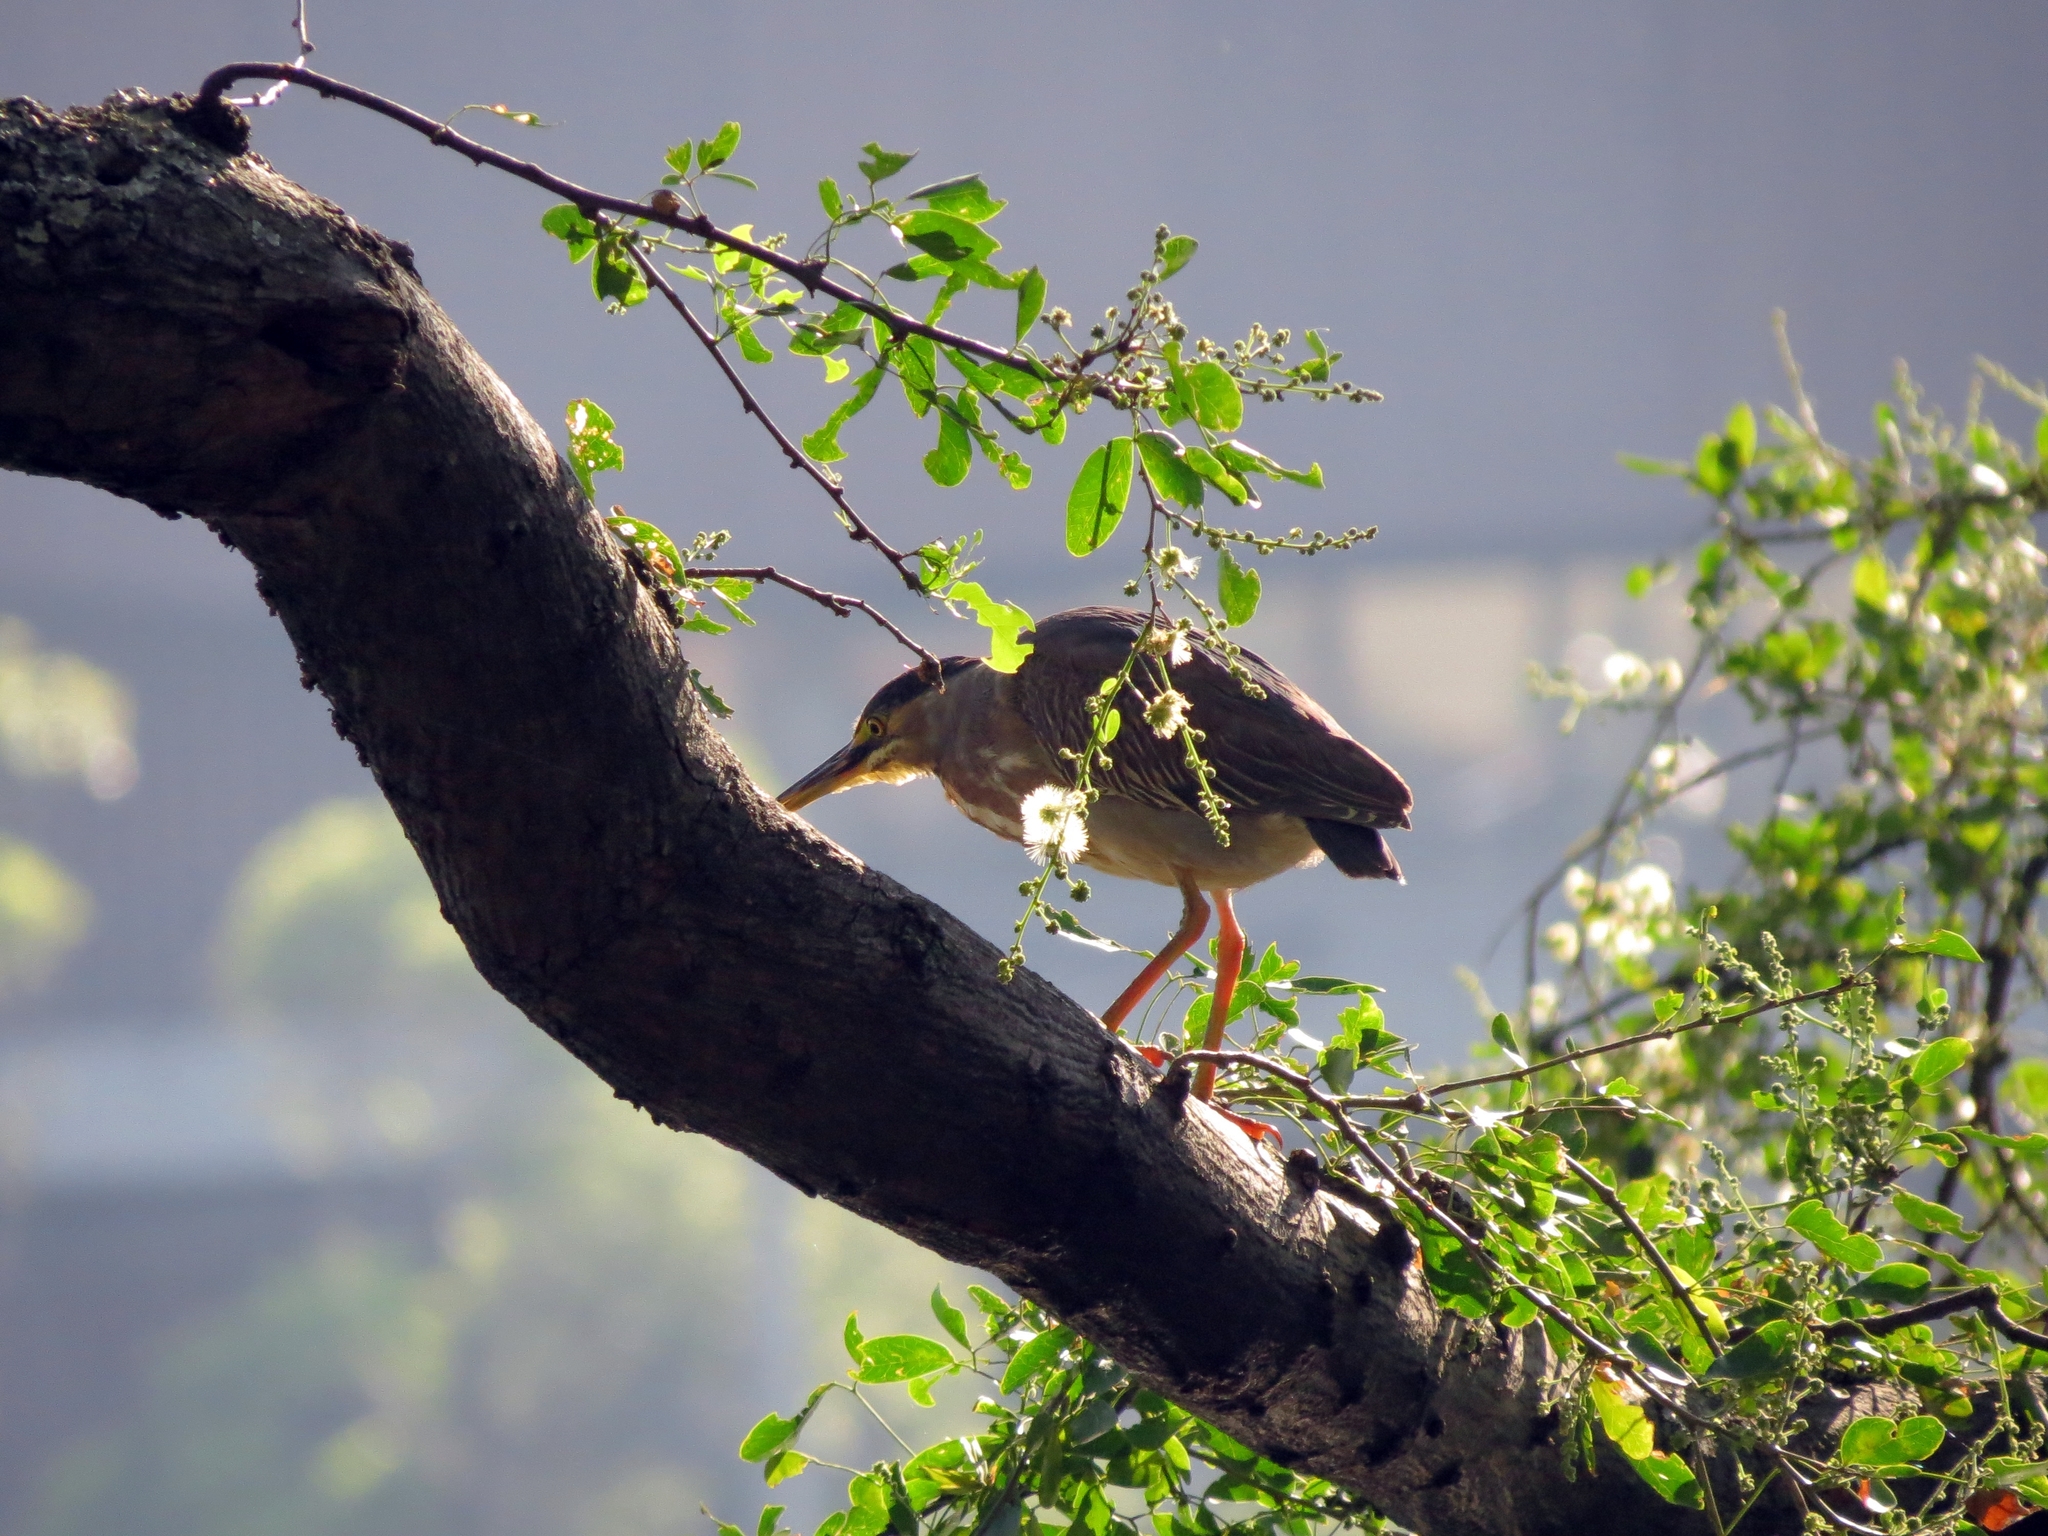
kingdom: Animalia
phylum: Chordata
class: Aves
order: Pelecaniformes
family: Ardeidae
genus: Butorides
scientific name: Butorides striata
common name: Striated heron
